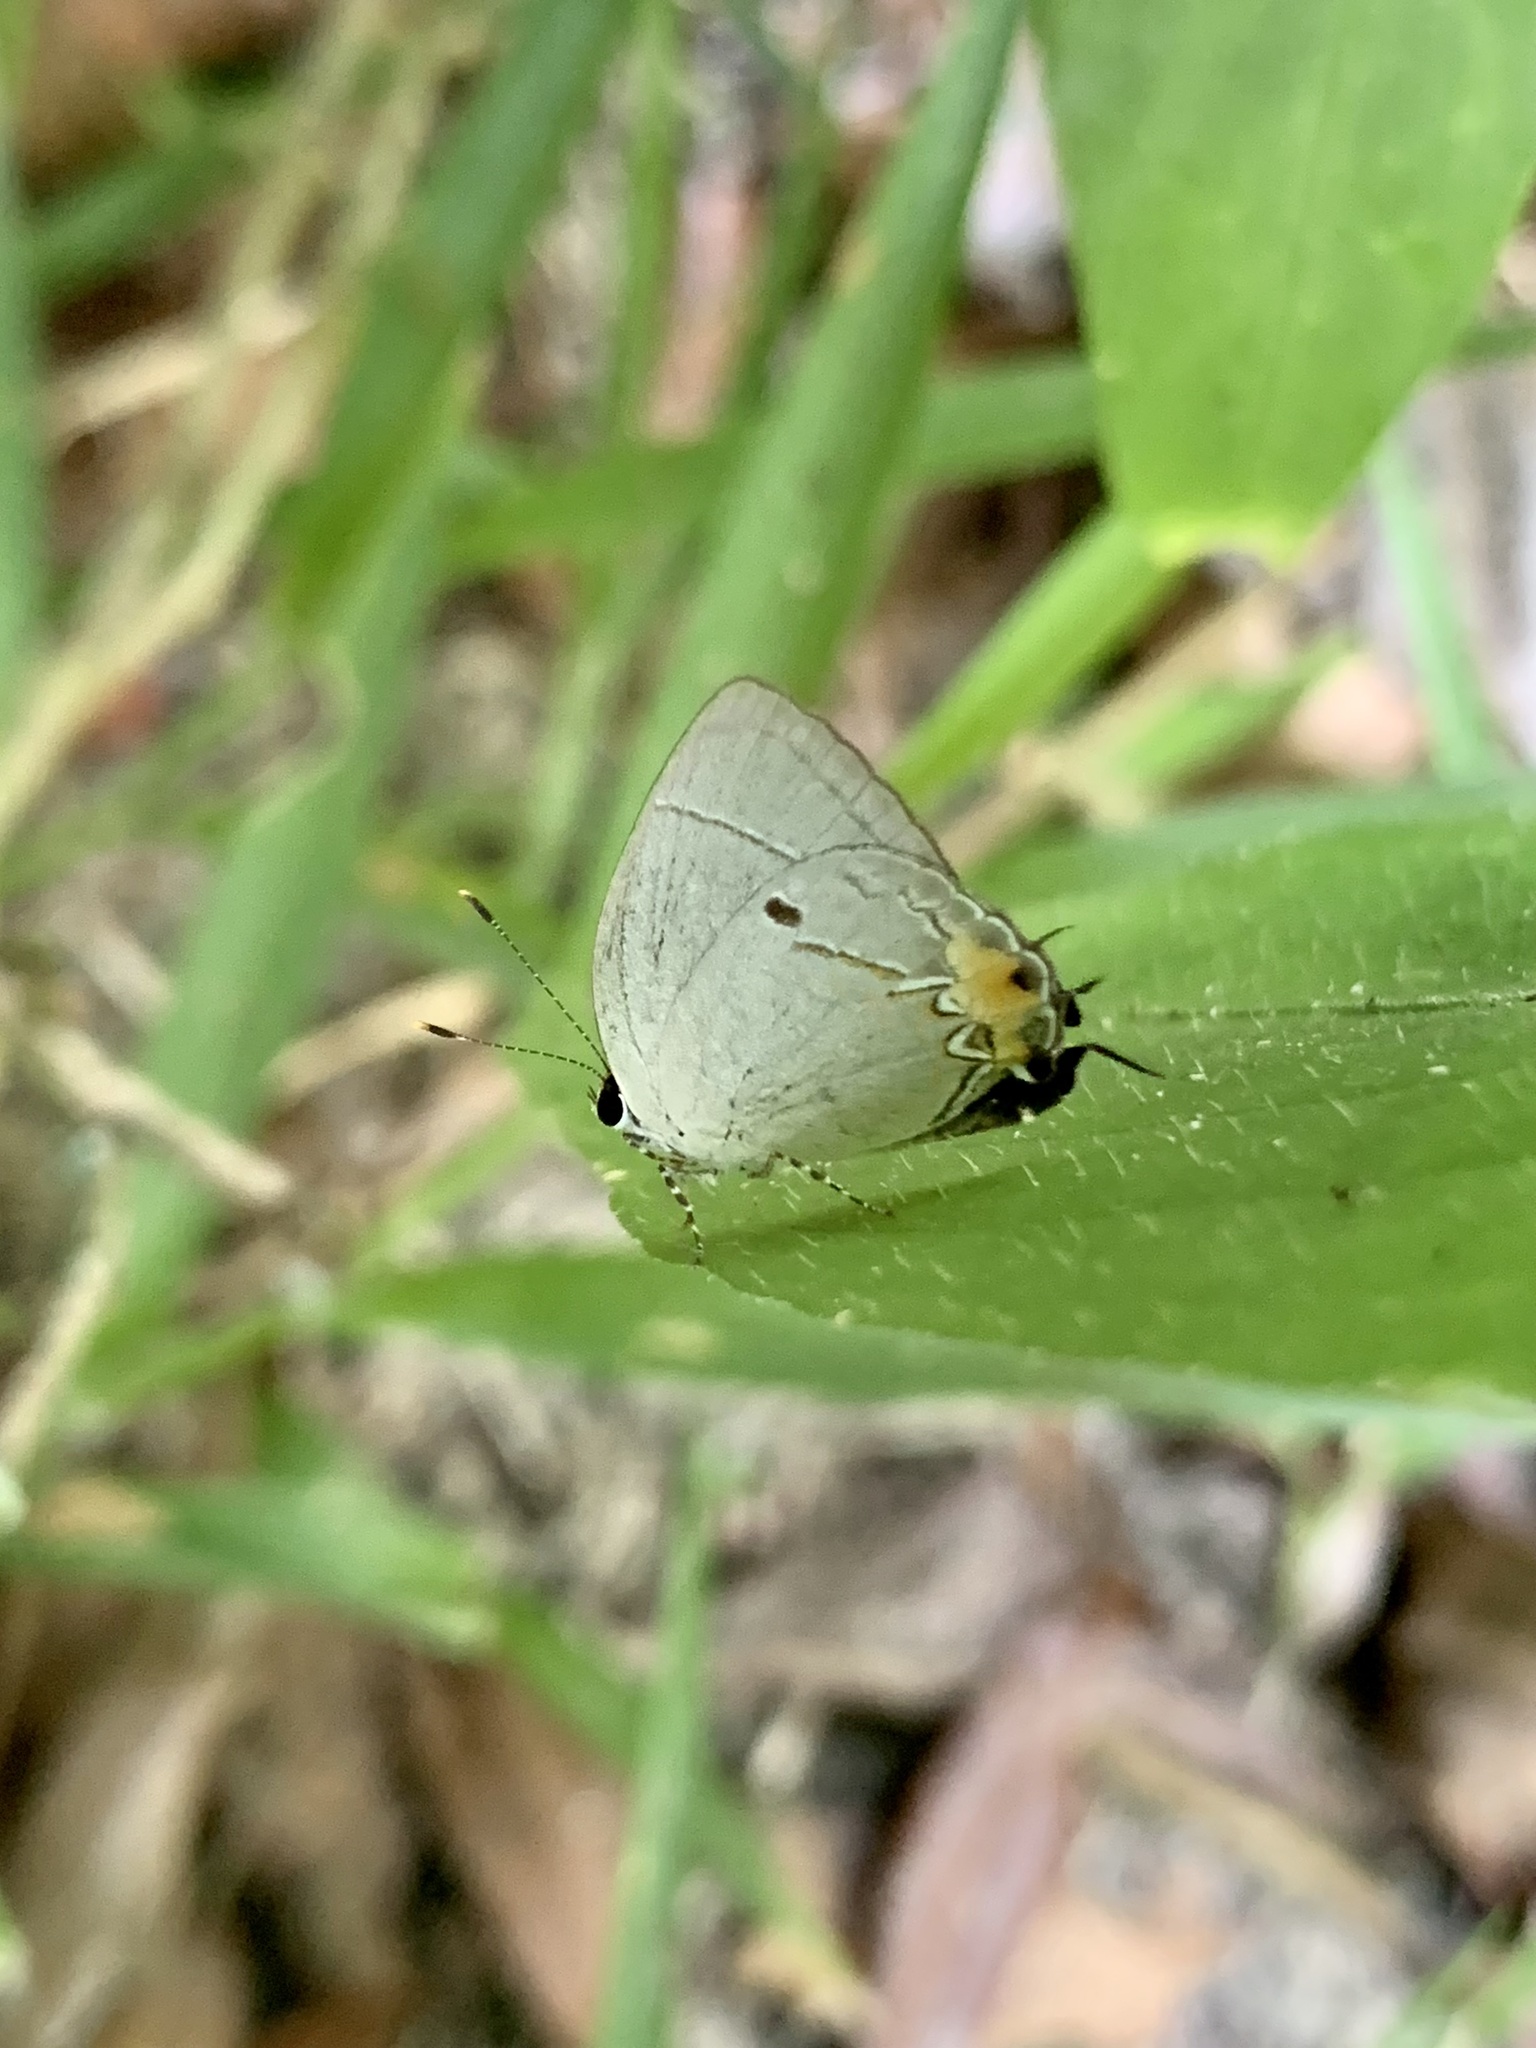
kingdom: Animalia
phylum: Arthropoda
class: Insecta
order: Lepidoptera
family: Lycaenidae
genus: Iaspis
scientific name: Iaspis temesa
